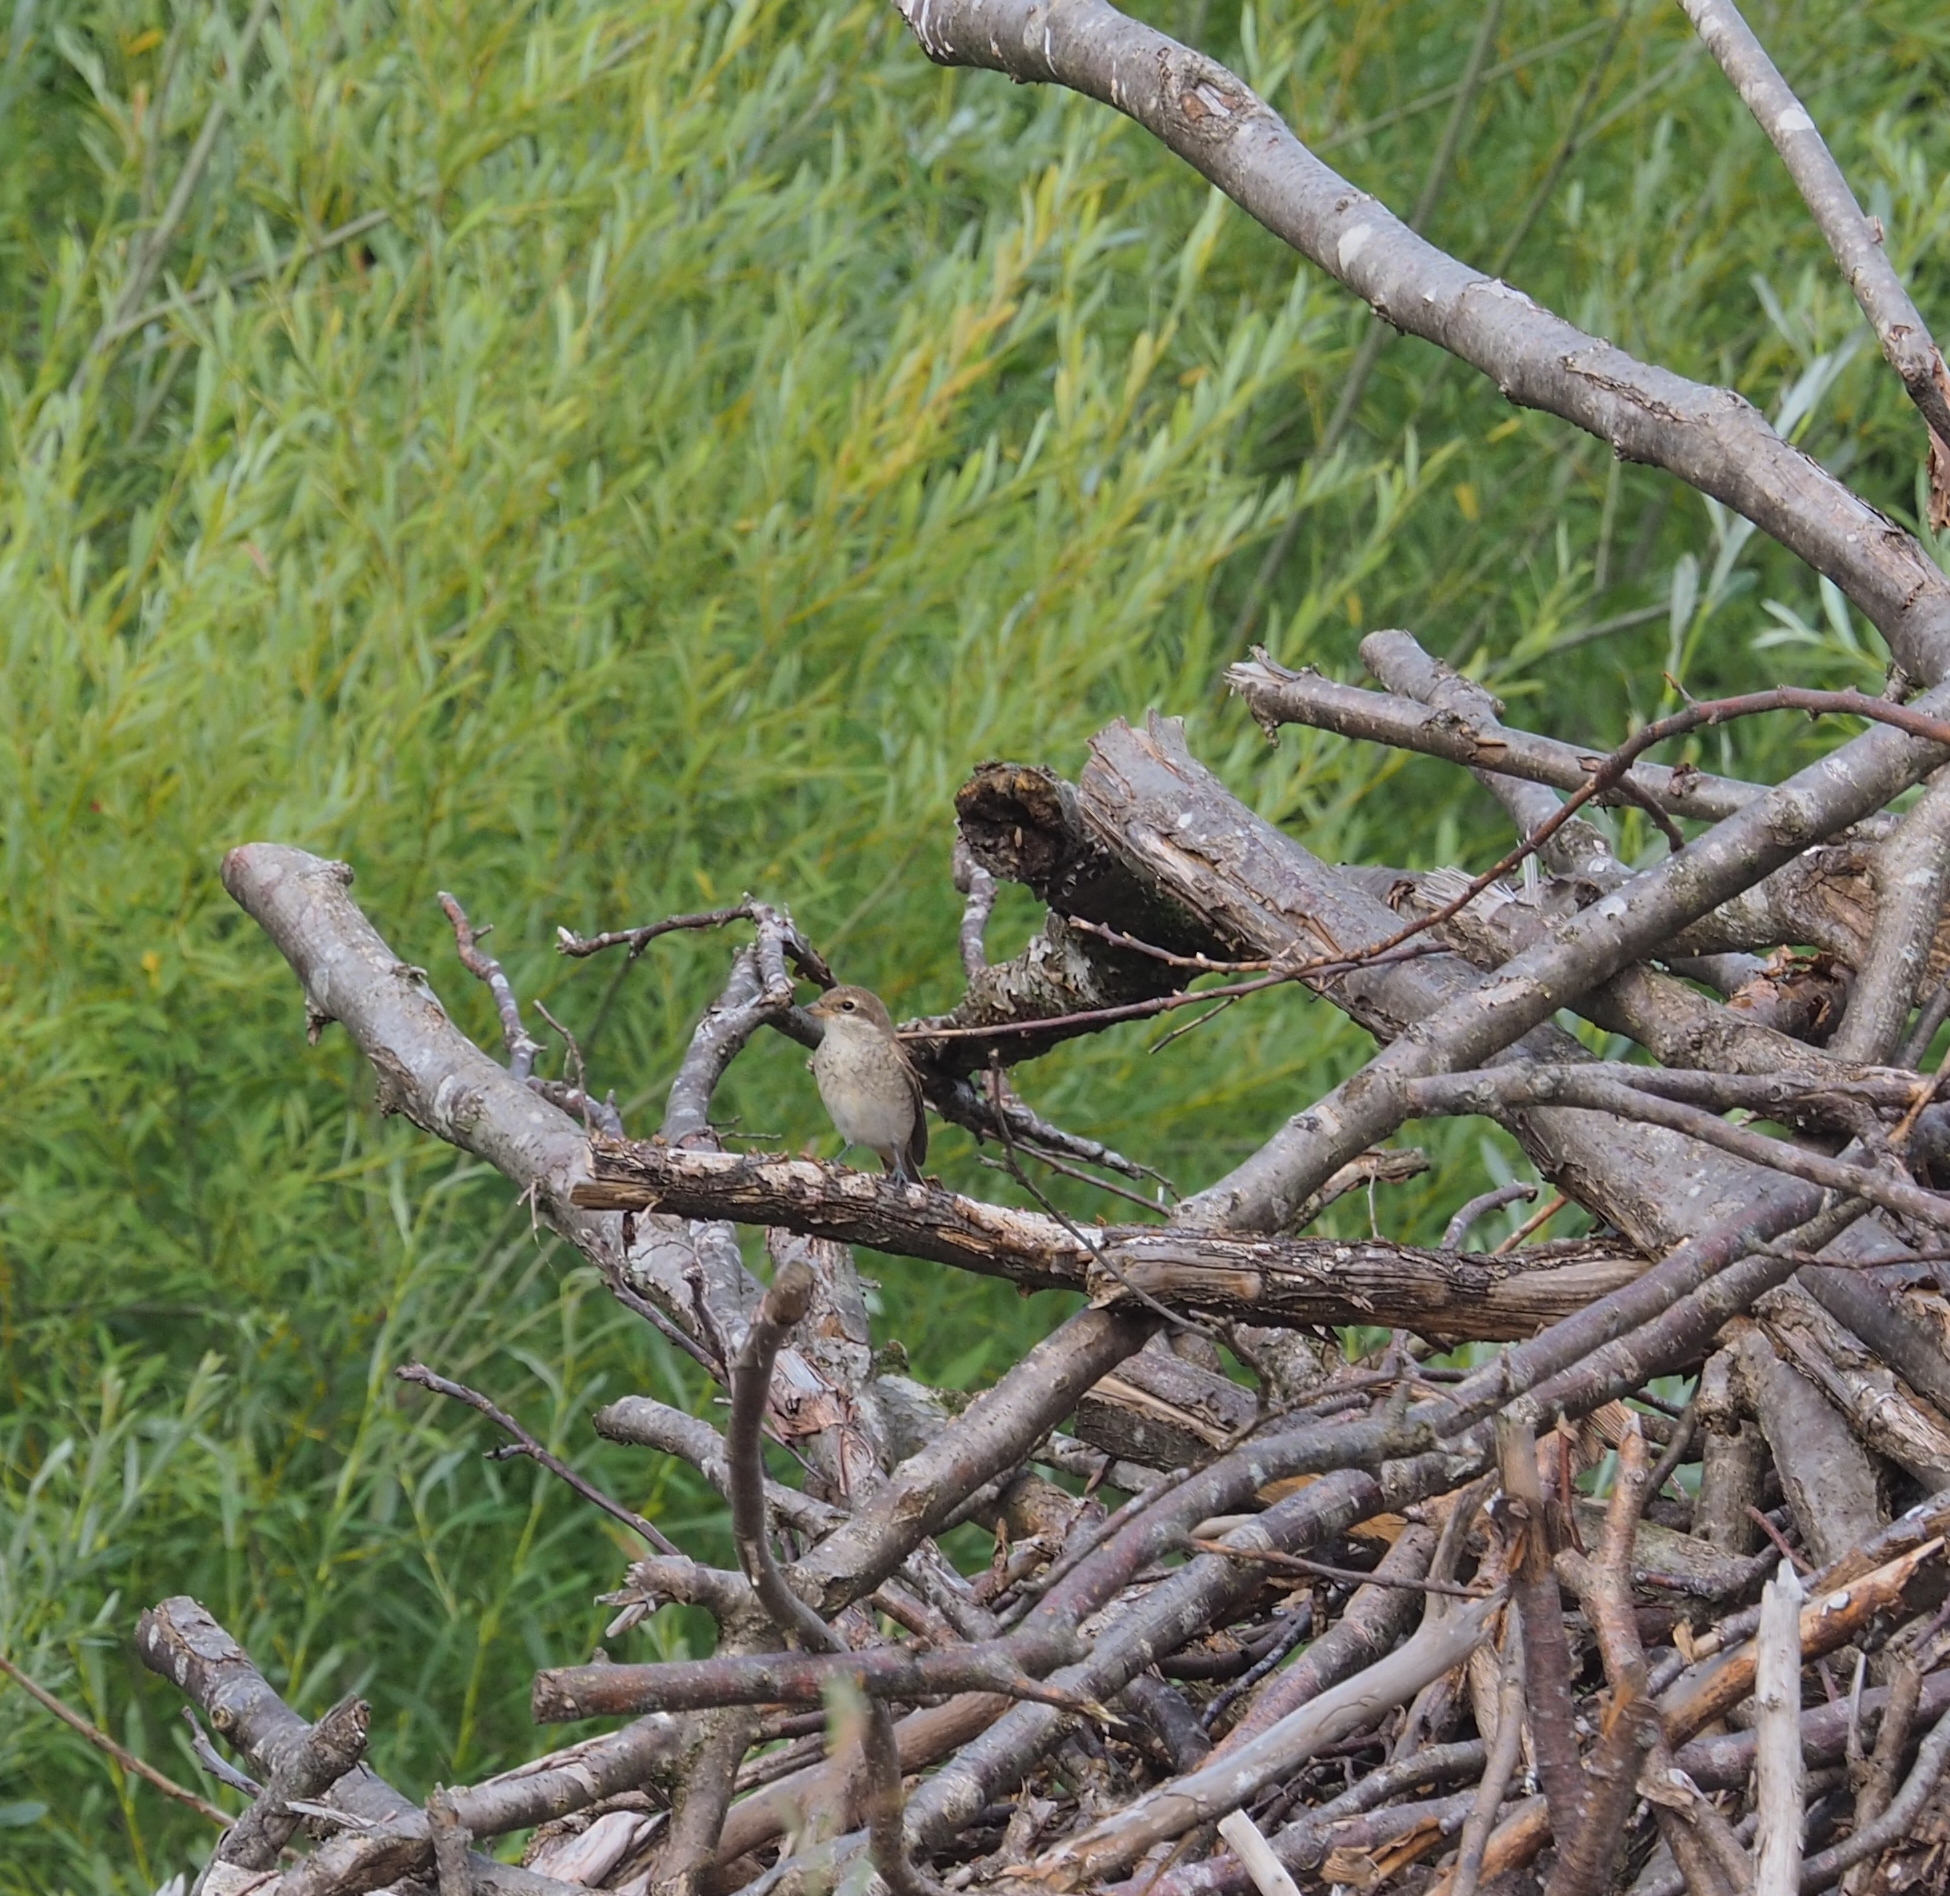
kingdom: Animalia
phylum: Chordata
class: Aves
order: Passeriformes
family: Laniidae
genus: Lanius
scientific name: Lanius collurio
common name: Red-backed shrike
